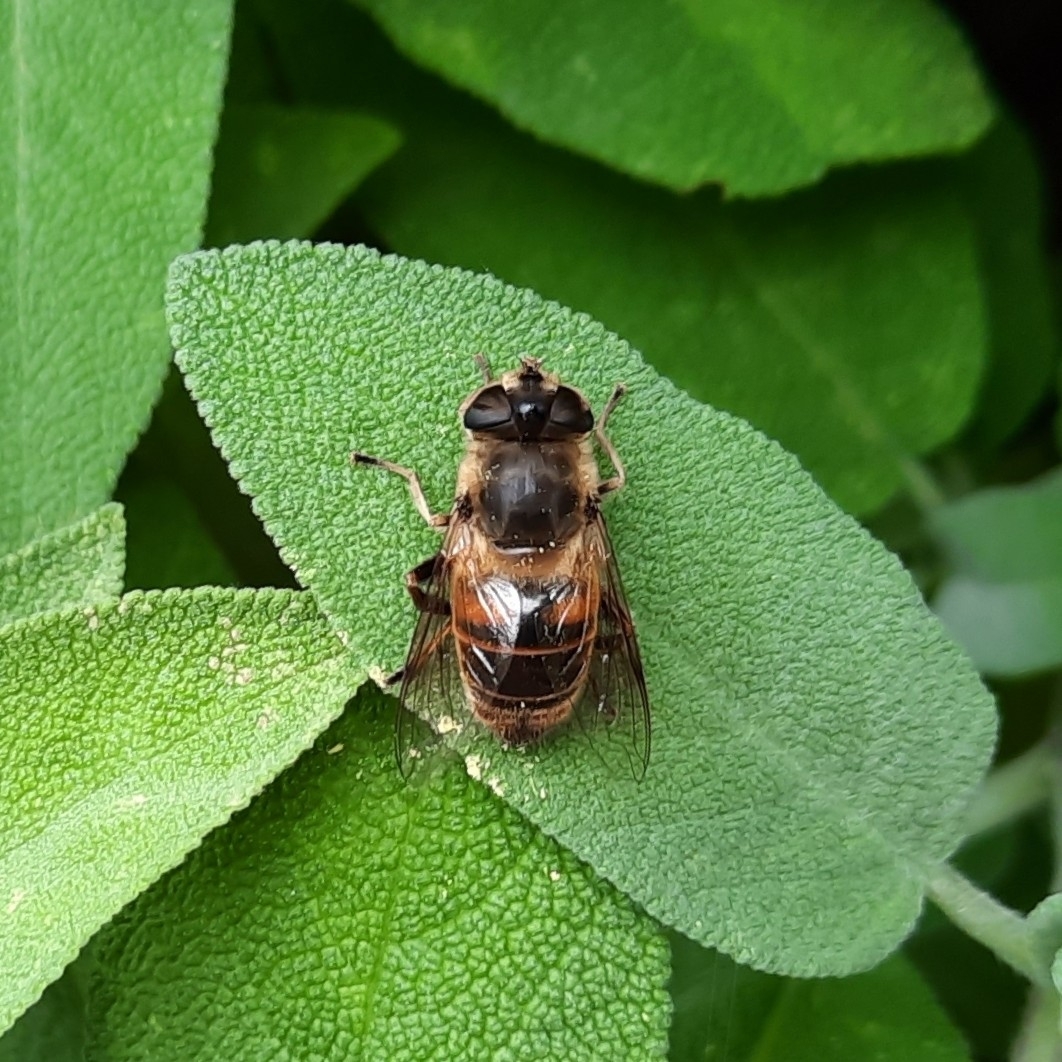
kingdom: Animalia
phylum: Arthropoda
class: Insecta
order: Diptera
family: Syrphidae
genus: Eristalis
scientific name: Eristalis tenax
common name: Drone fly
